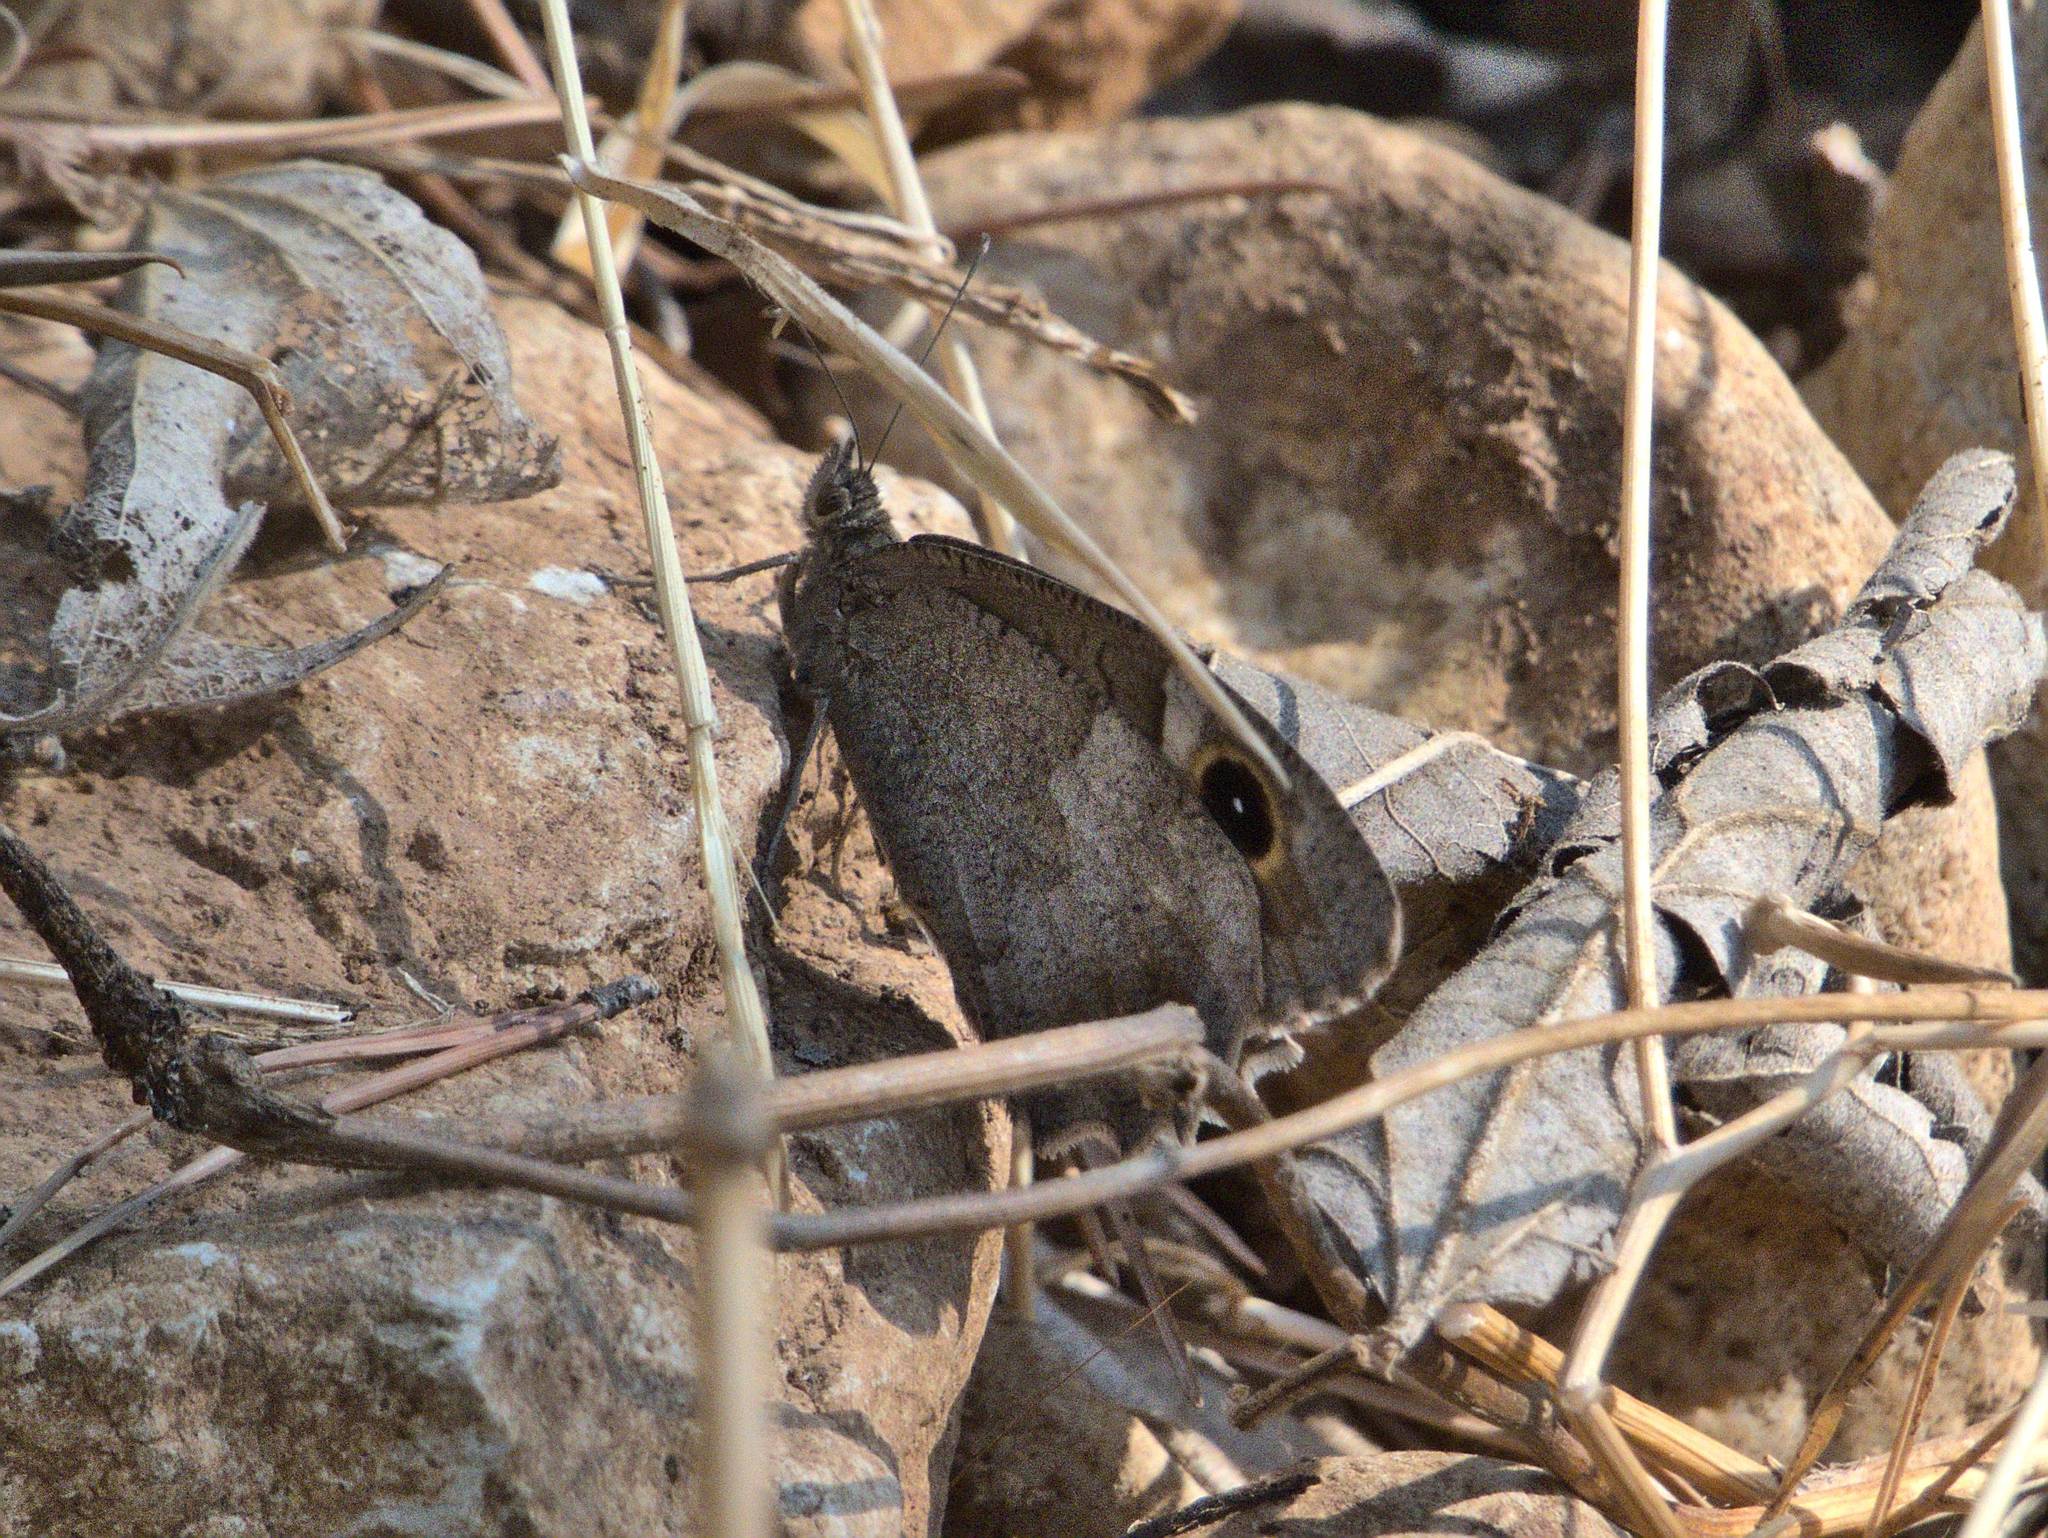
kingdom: Animalia
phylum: Arthropoda
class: Insecta
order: Lepidoptera
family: Nymphalidae
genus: Hipparchia
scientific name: Hipparchia statilinus
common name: Tree grayling
